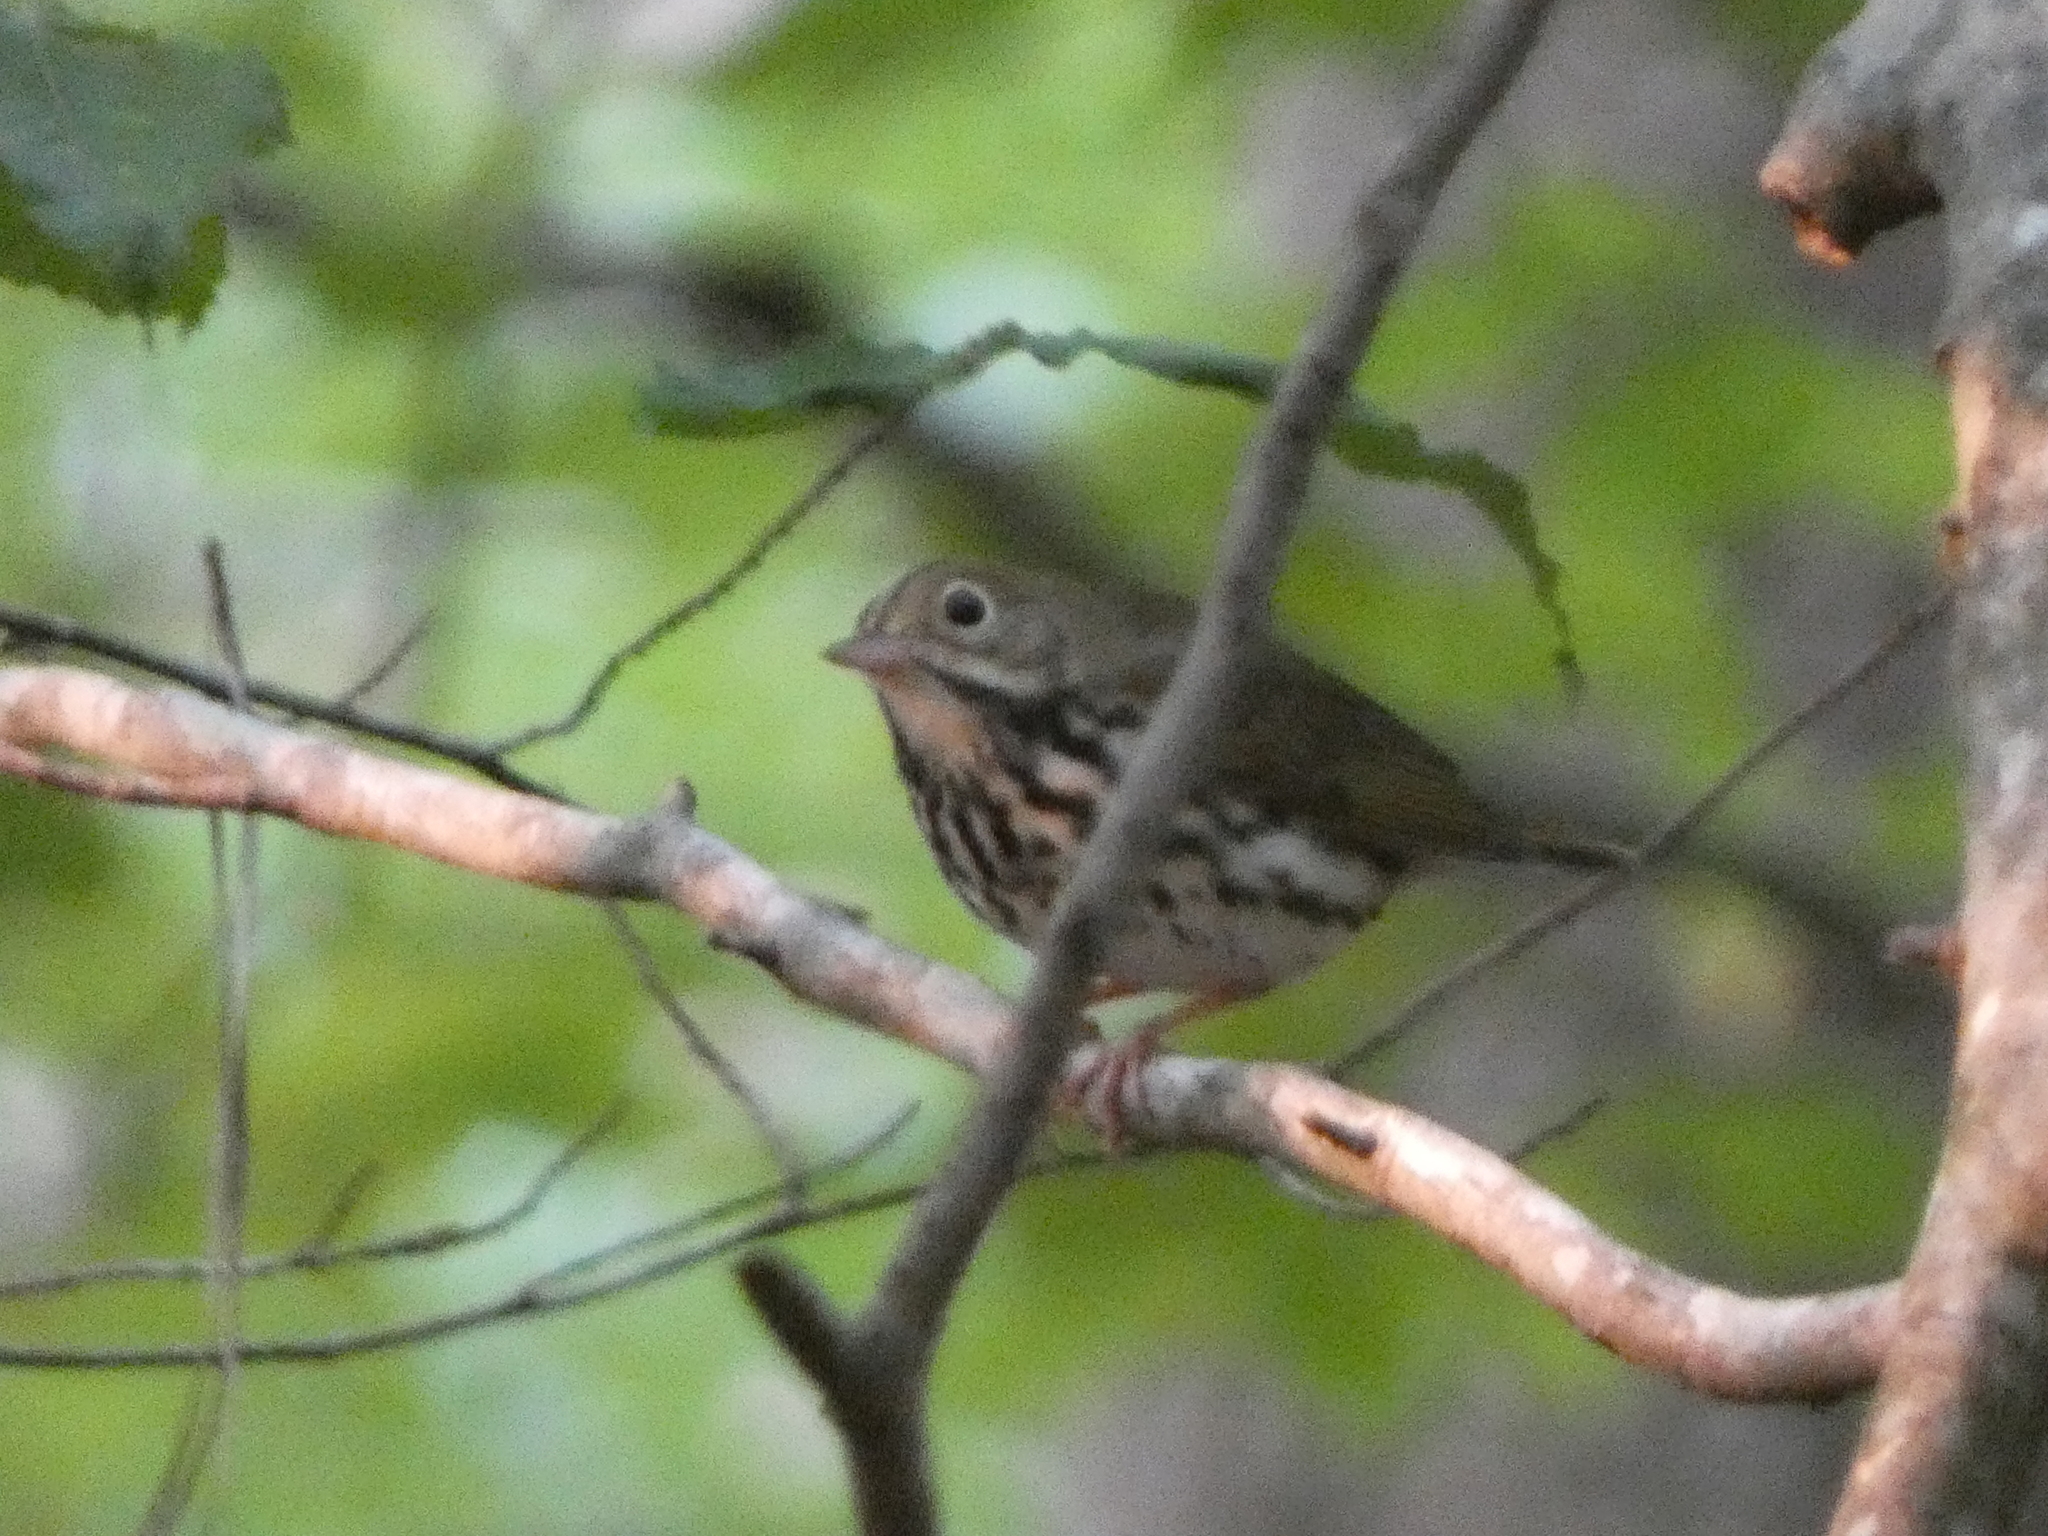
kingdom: Animalia
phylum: Chordata
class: Aves
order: Passeriformes
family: Parulidae
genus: Seiurus
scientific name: Seiurus aurocapilla
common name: Ovenbird
